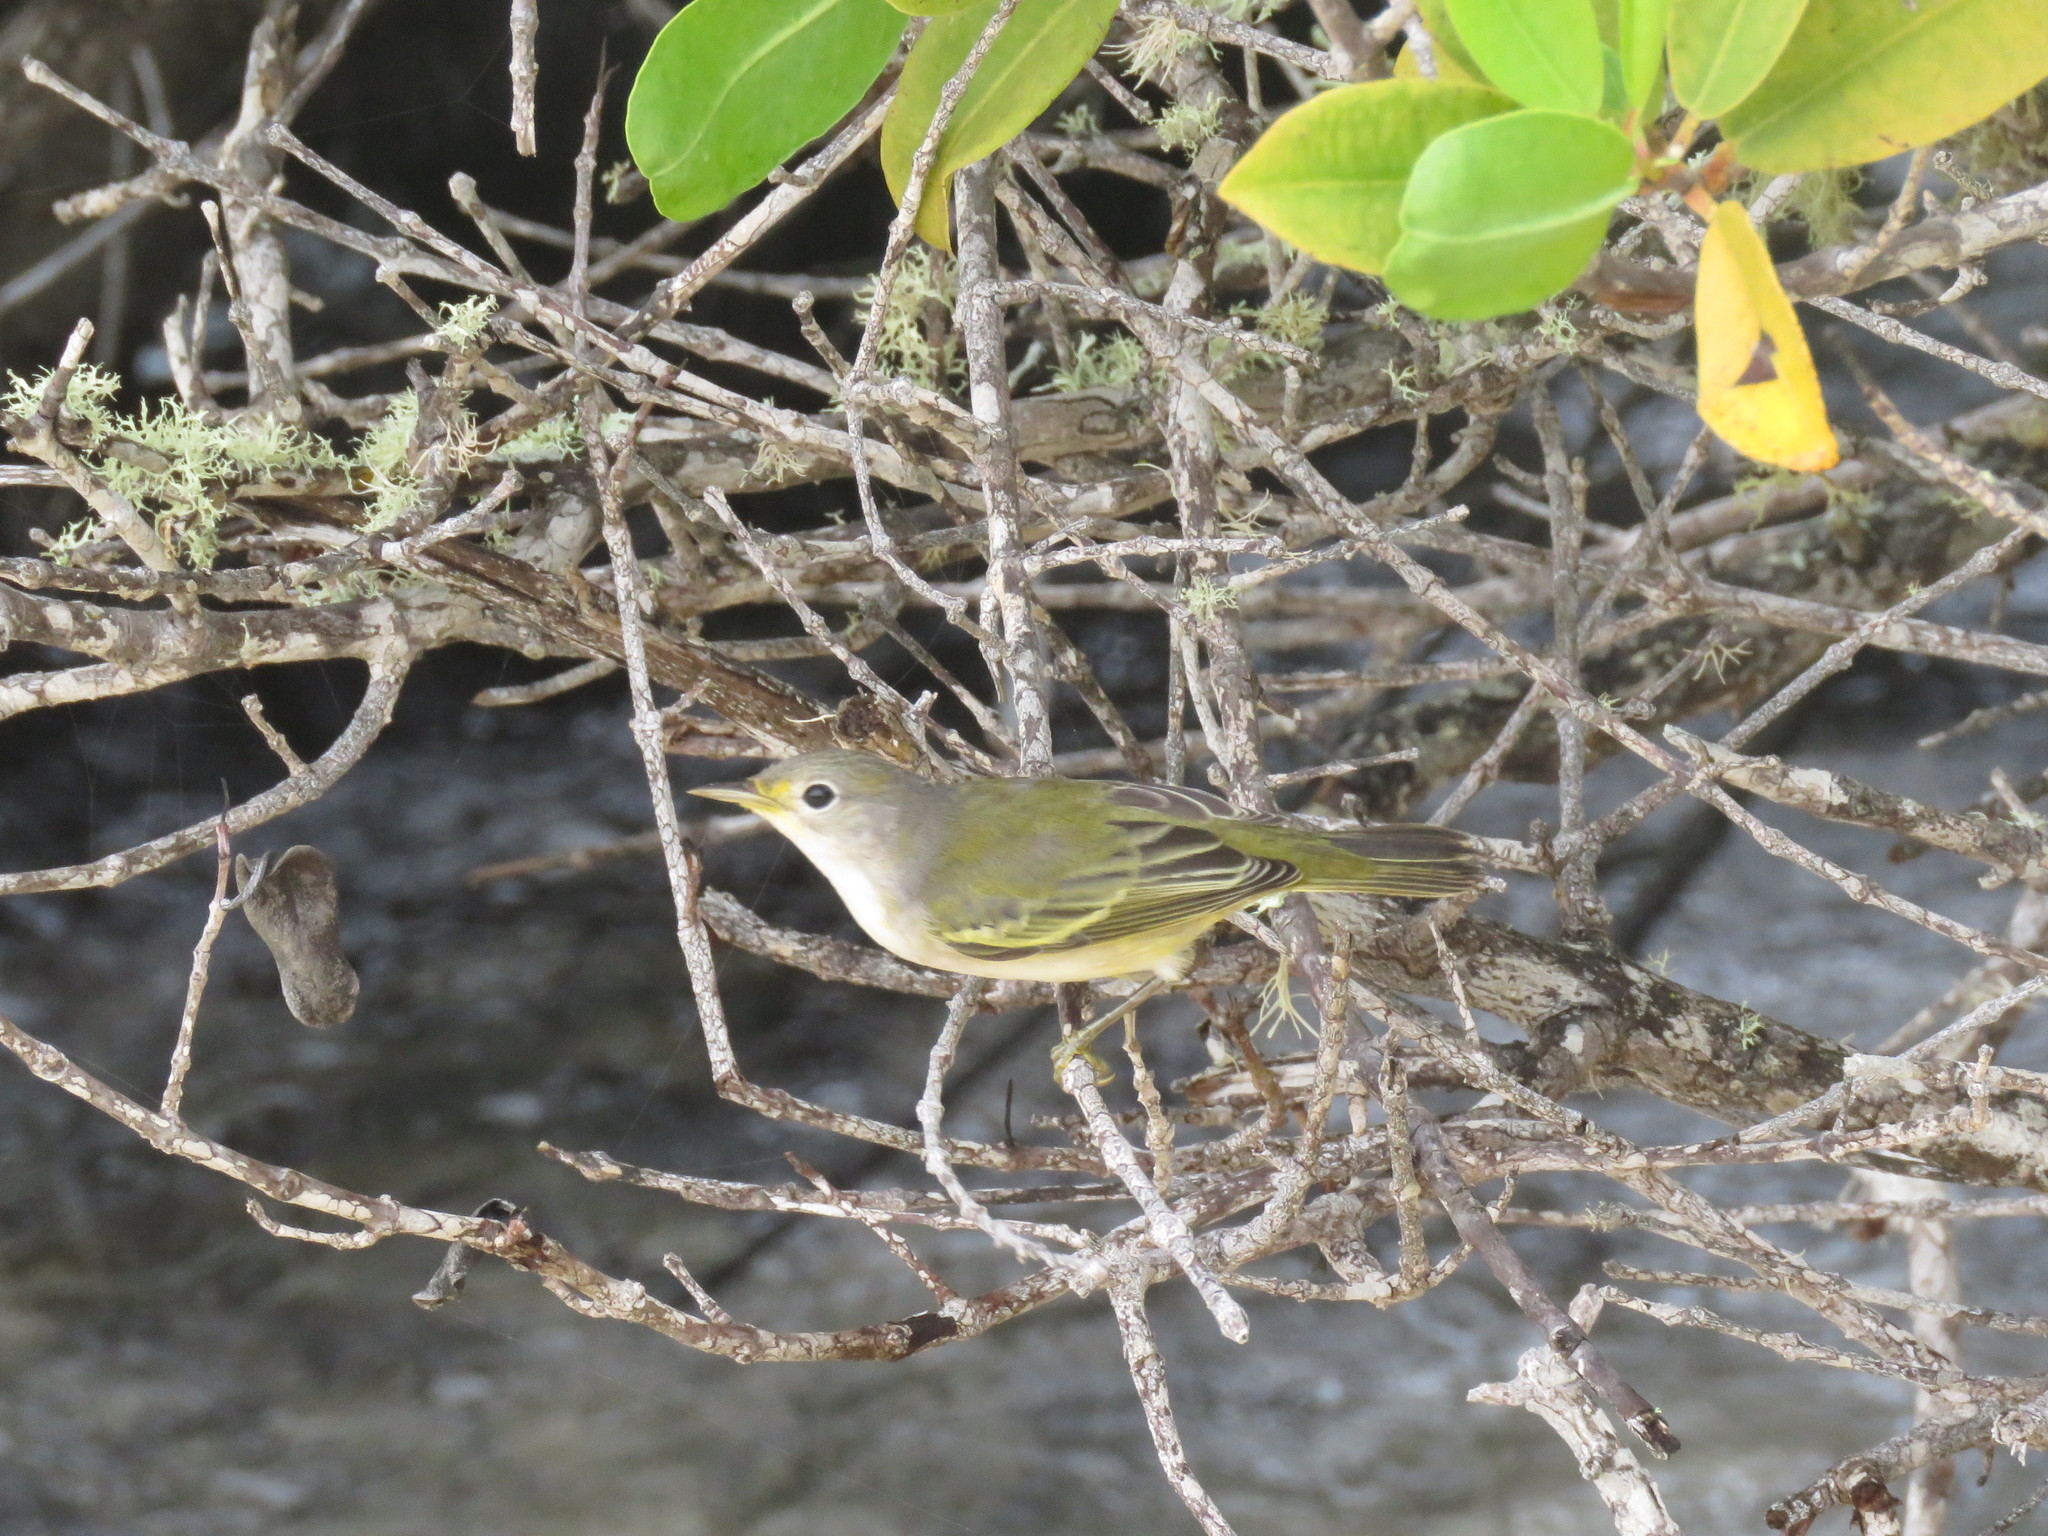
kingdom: Animalia
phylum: Chordata
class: Aves
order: Passeriformes
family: Parulidae
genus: Setophaga
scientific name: Setophaga petechia
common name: Yellow warbler
